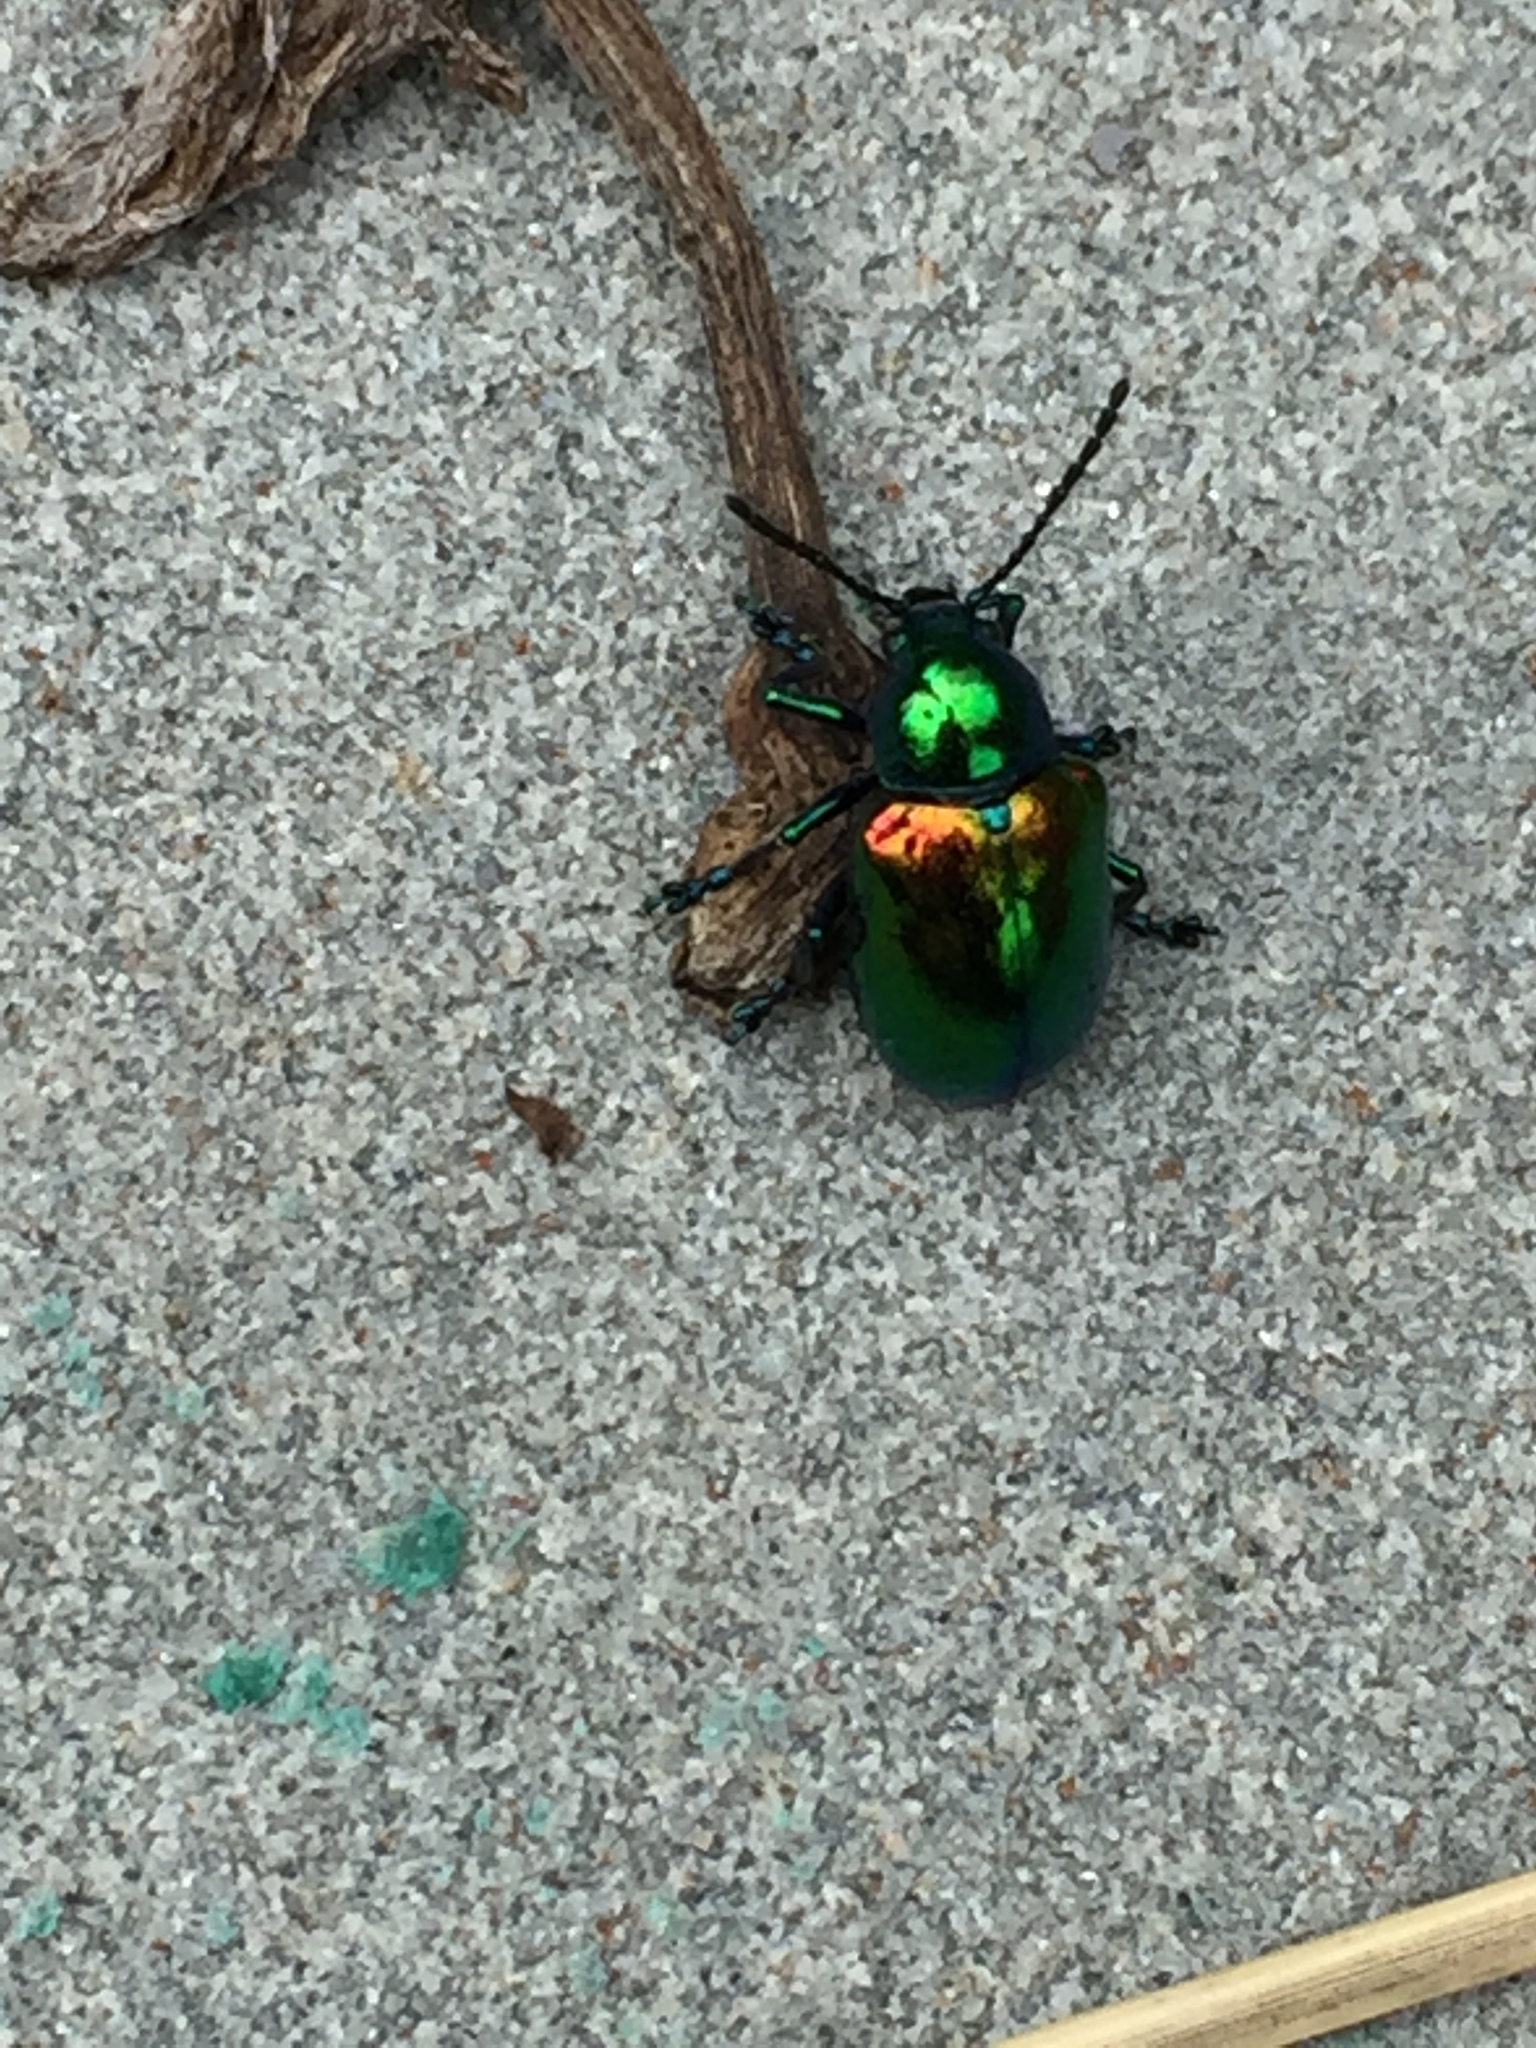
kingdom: Animalia
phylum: Arthropoda
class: Insecta
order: Coleoptera
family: Chrysomelidae
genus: Chrysochus
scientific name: Chrysochus auratus
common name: Dogbane leaf beetle
